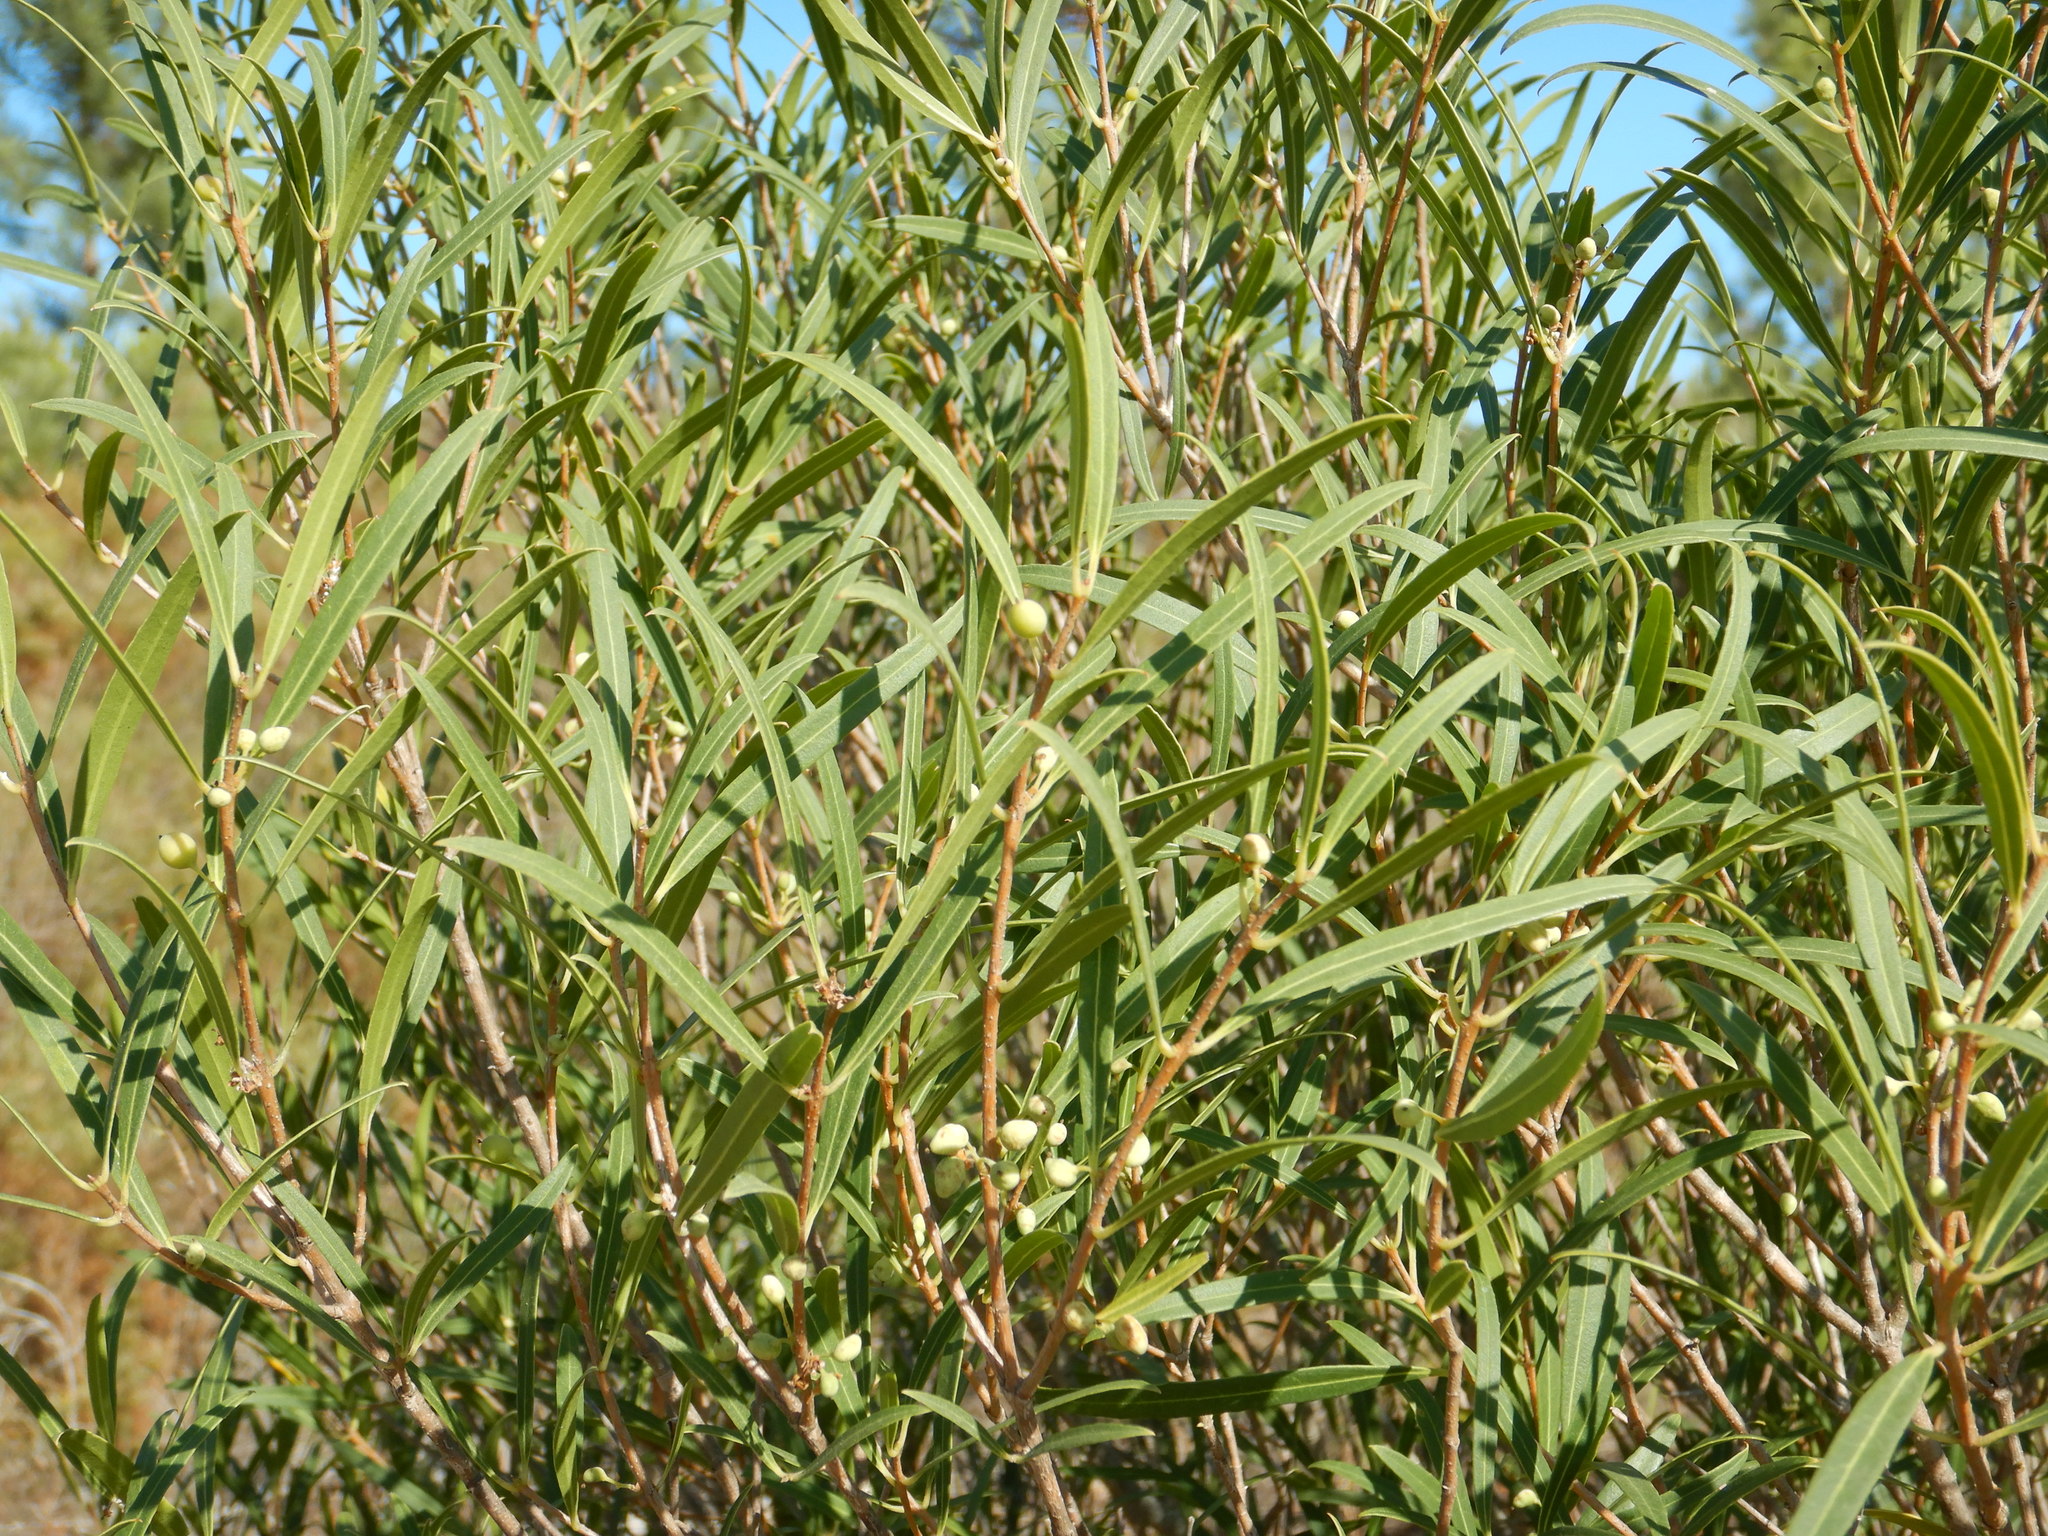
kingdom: Plantae
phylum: Tracheophyta
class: Magnoliopsida
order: Lamiales
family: Oleaceae
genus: Phillyrea
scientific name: Phillyrea angustifolia
